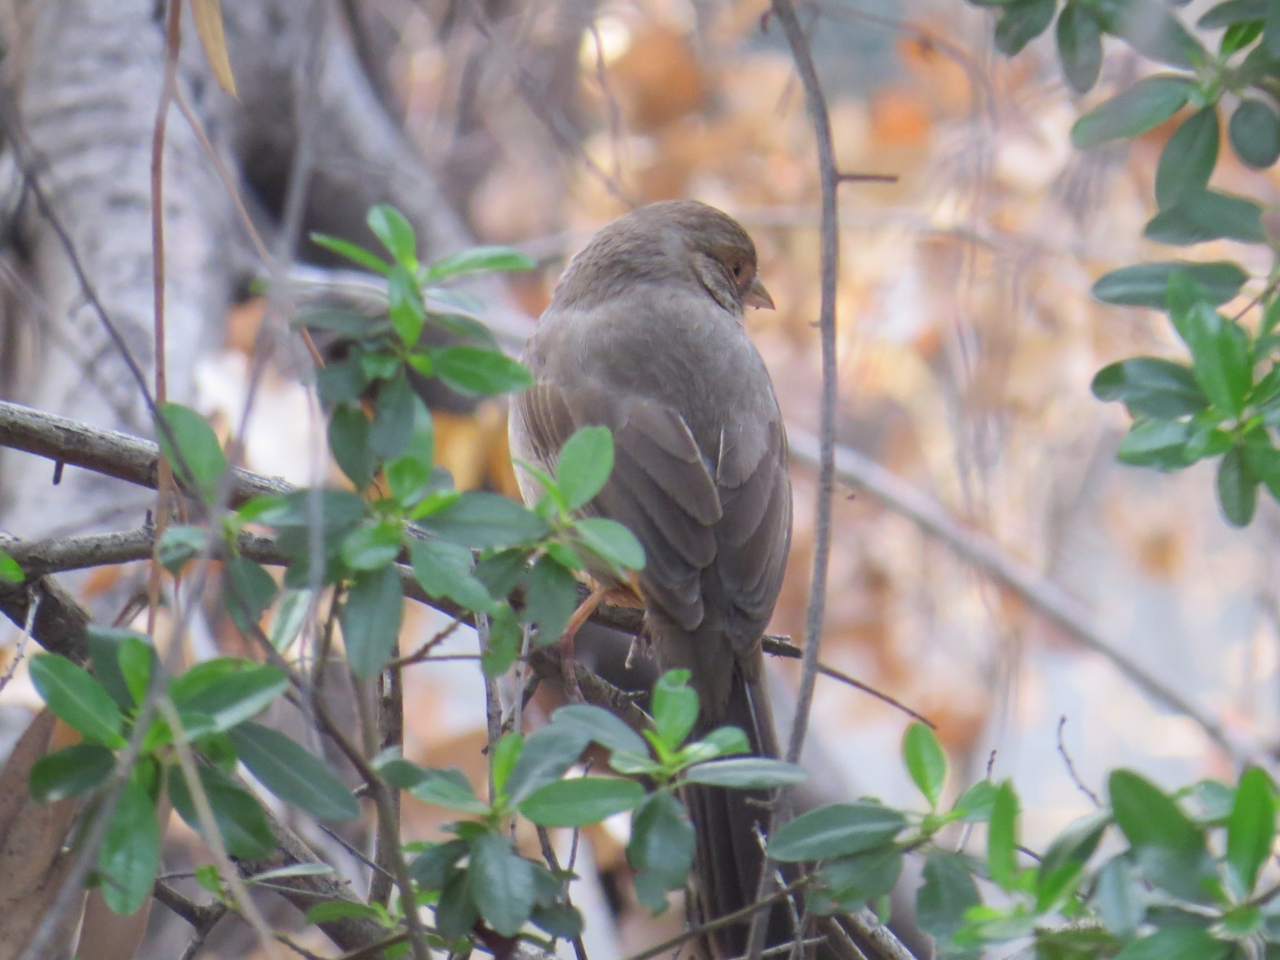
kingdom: Animalia
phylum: Chordata
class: Aves
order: Passeriformes
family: Passerellidae
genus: Melozone
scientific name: Melozone crissalis
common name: California towhee
